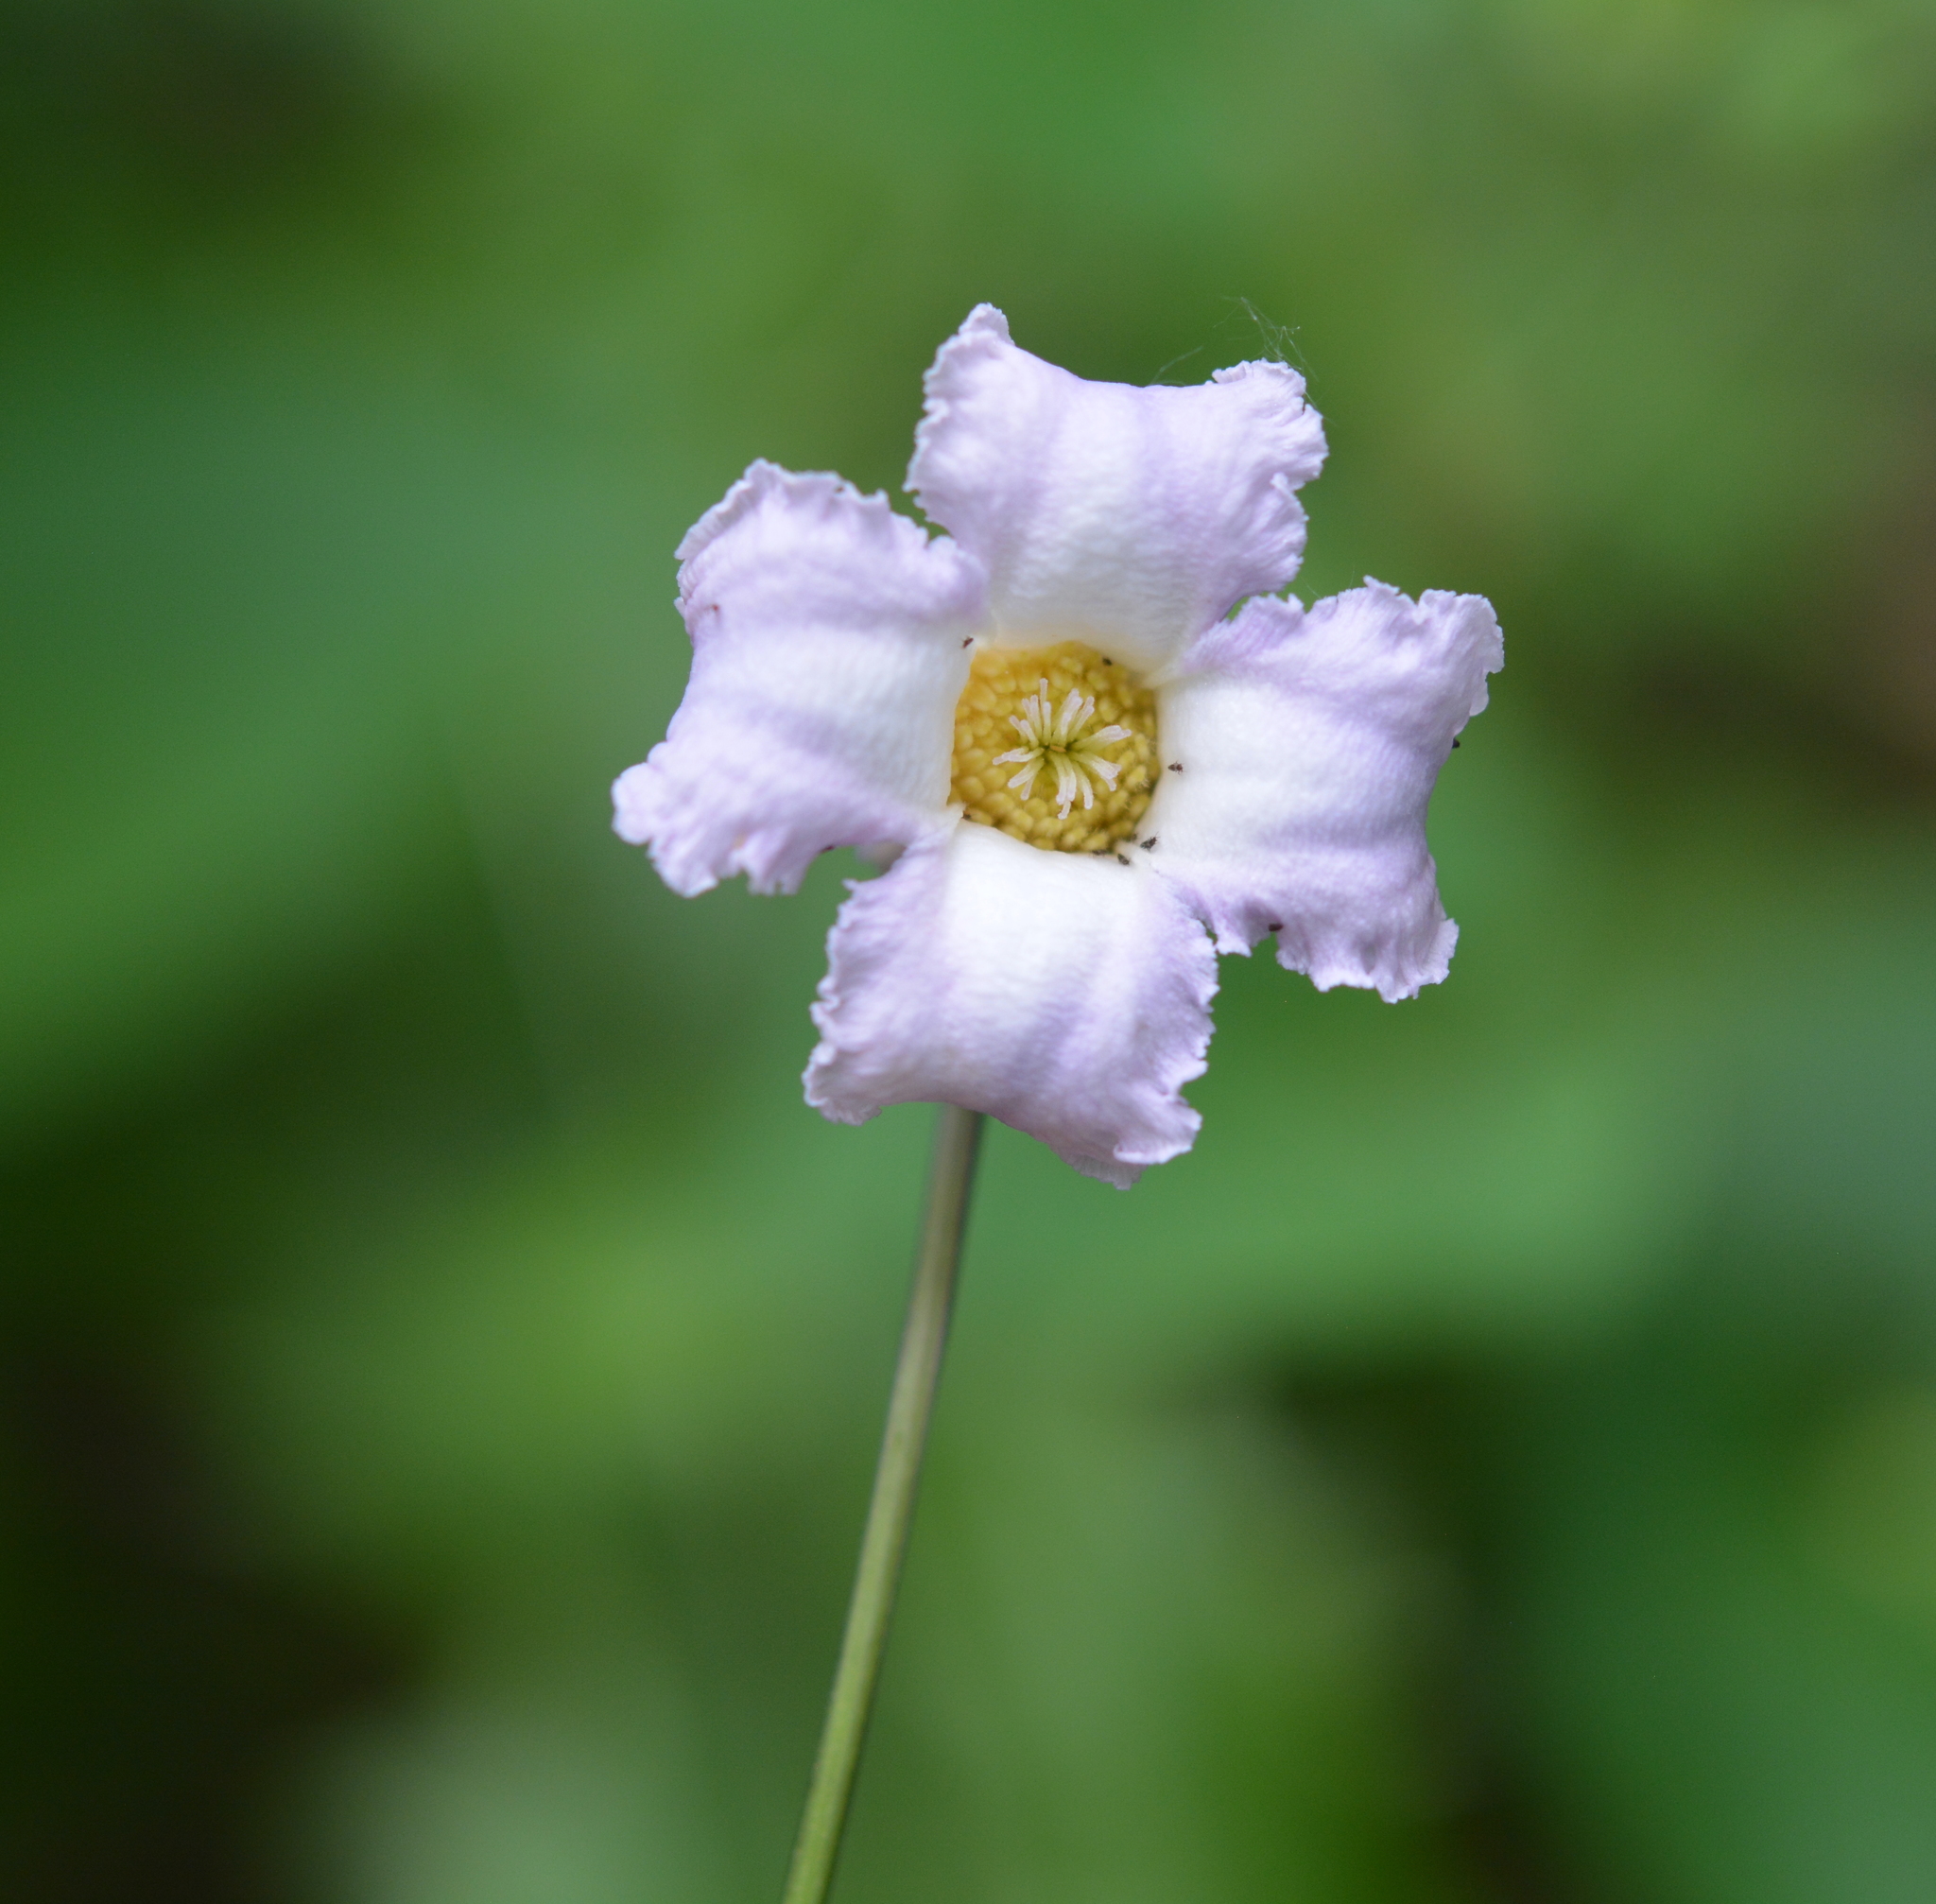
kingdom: Plantae
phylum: Tracheophyta
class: Magnoliopsida
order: Ranunculales
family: Ranunculaceae
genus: Clematis
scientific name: Clematis crispa
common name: Curly clematis
